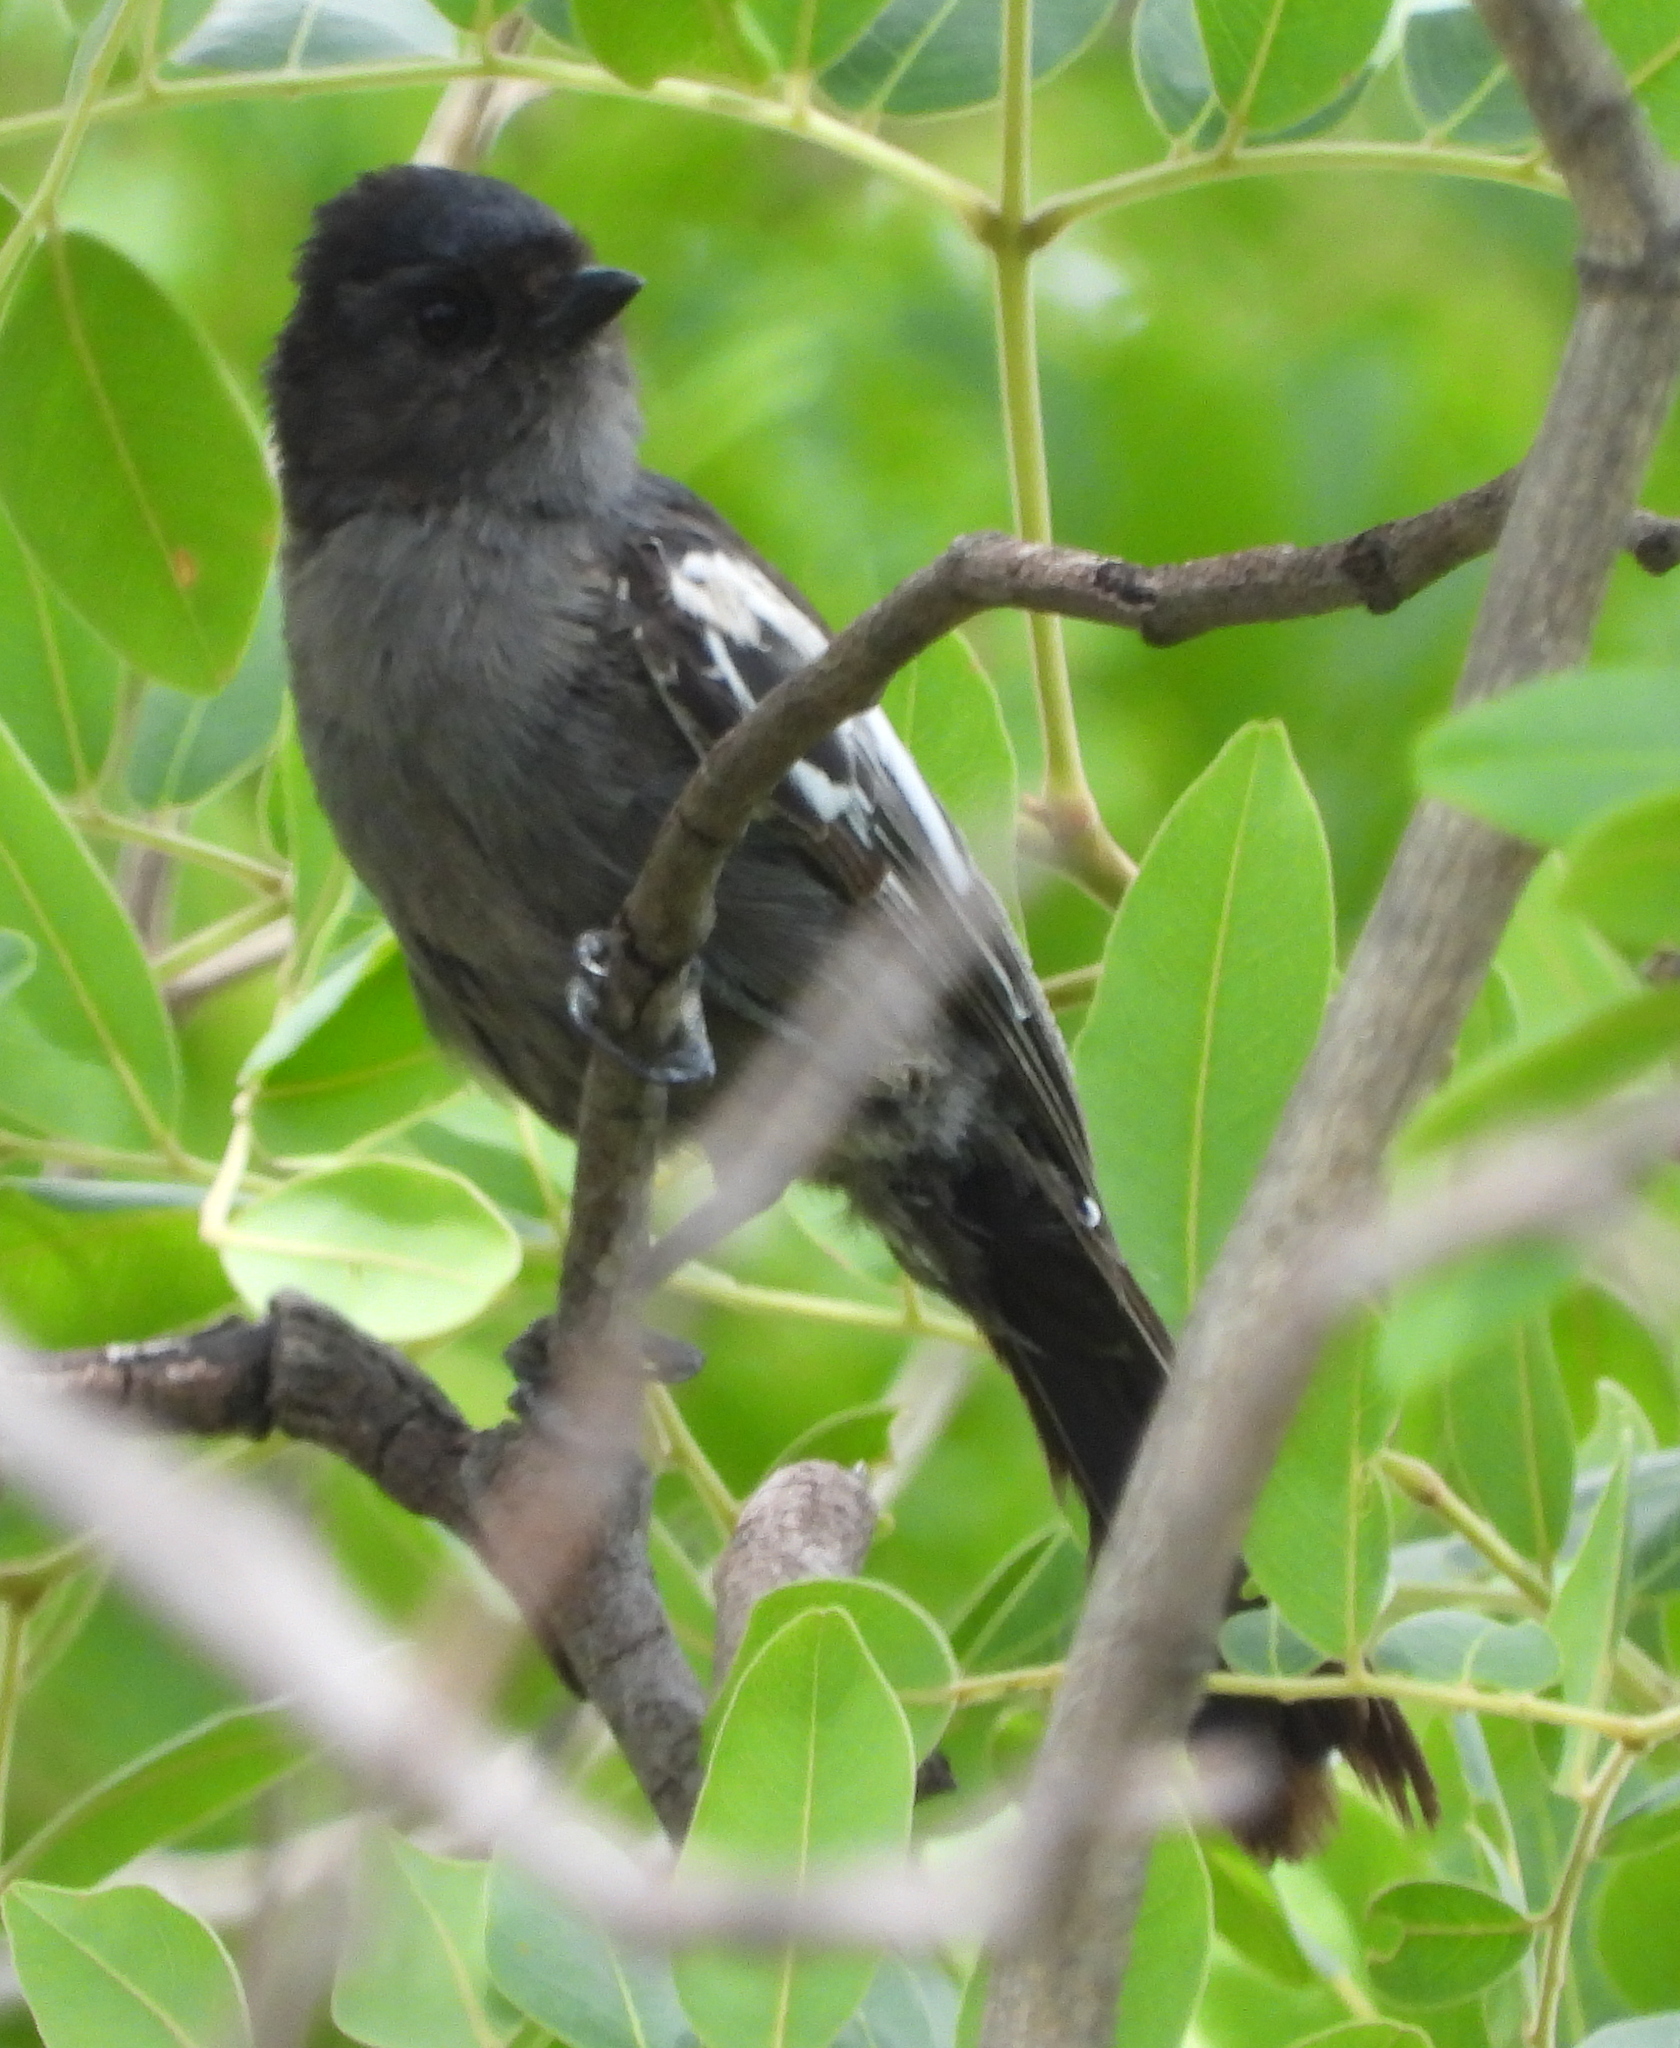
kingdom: Animalia
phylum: Chordata
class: Aves
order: Passeriformes
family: Paridae
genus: Parus
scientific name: Parus niger
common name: Southern black tit
